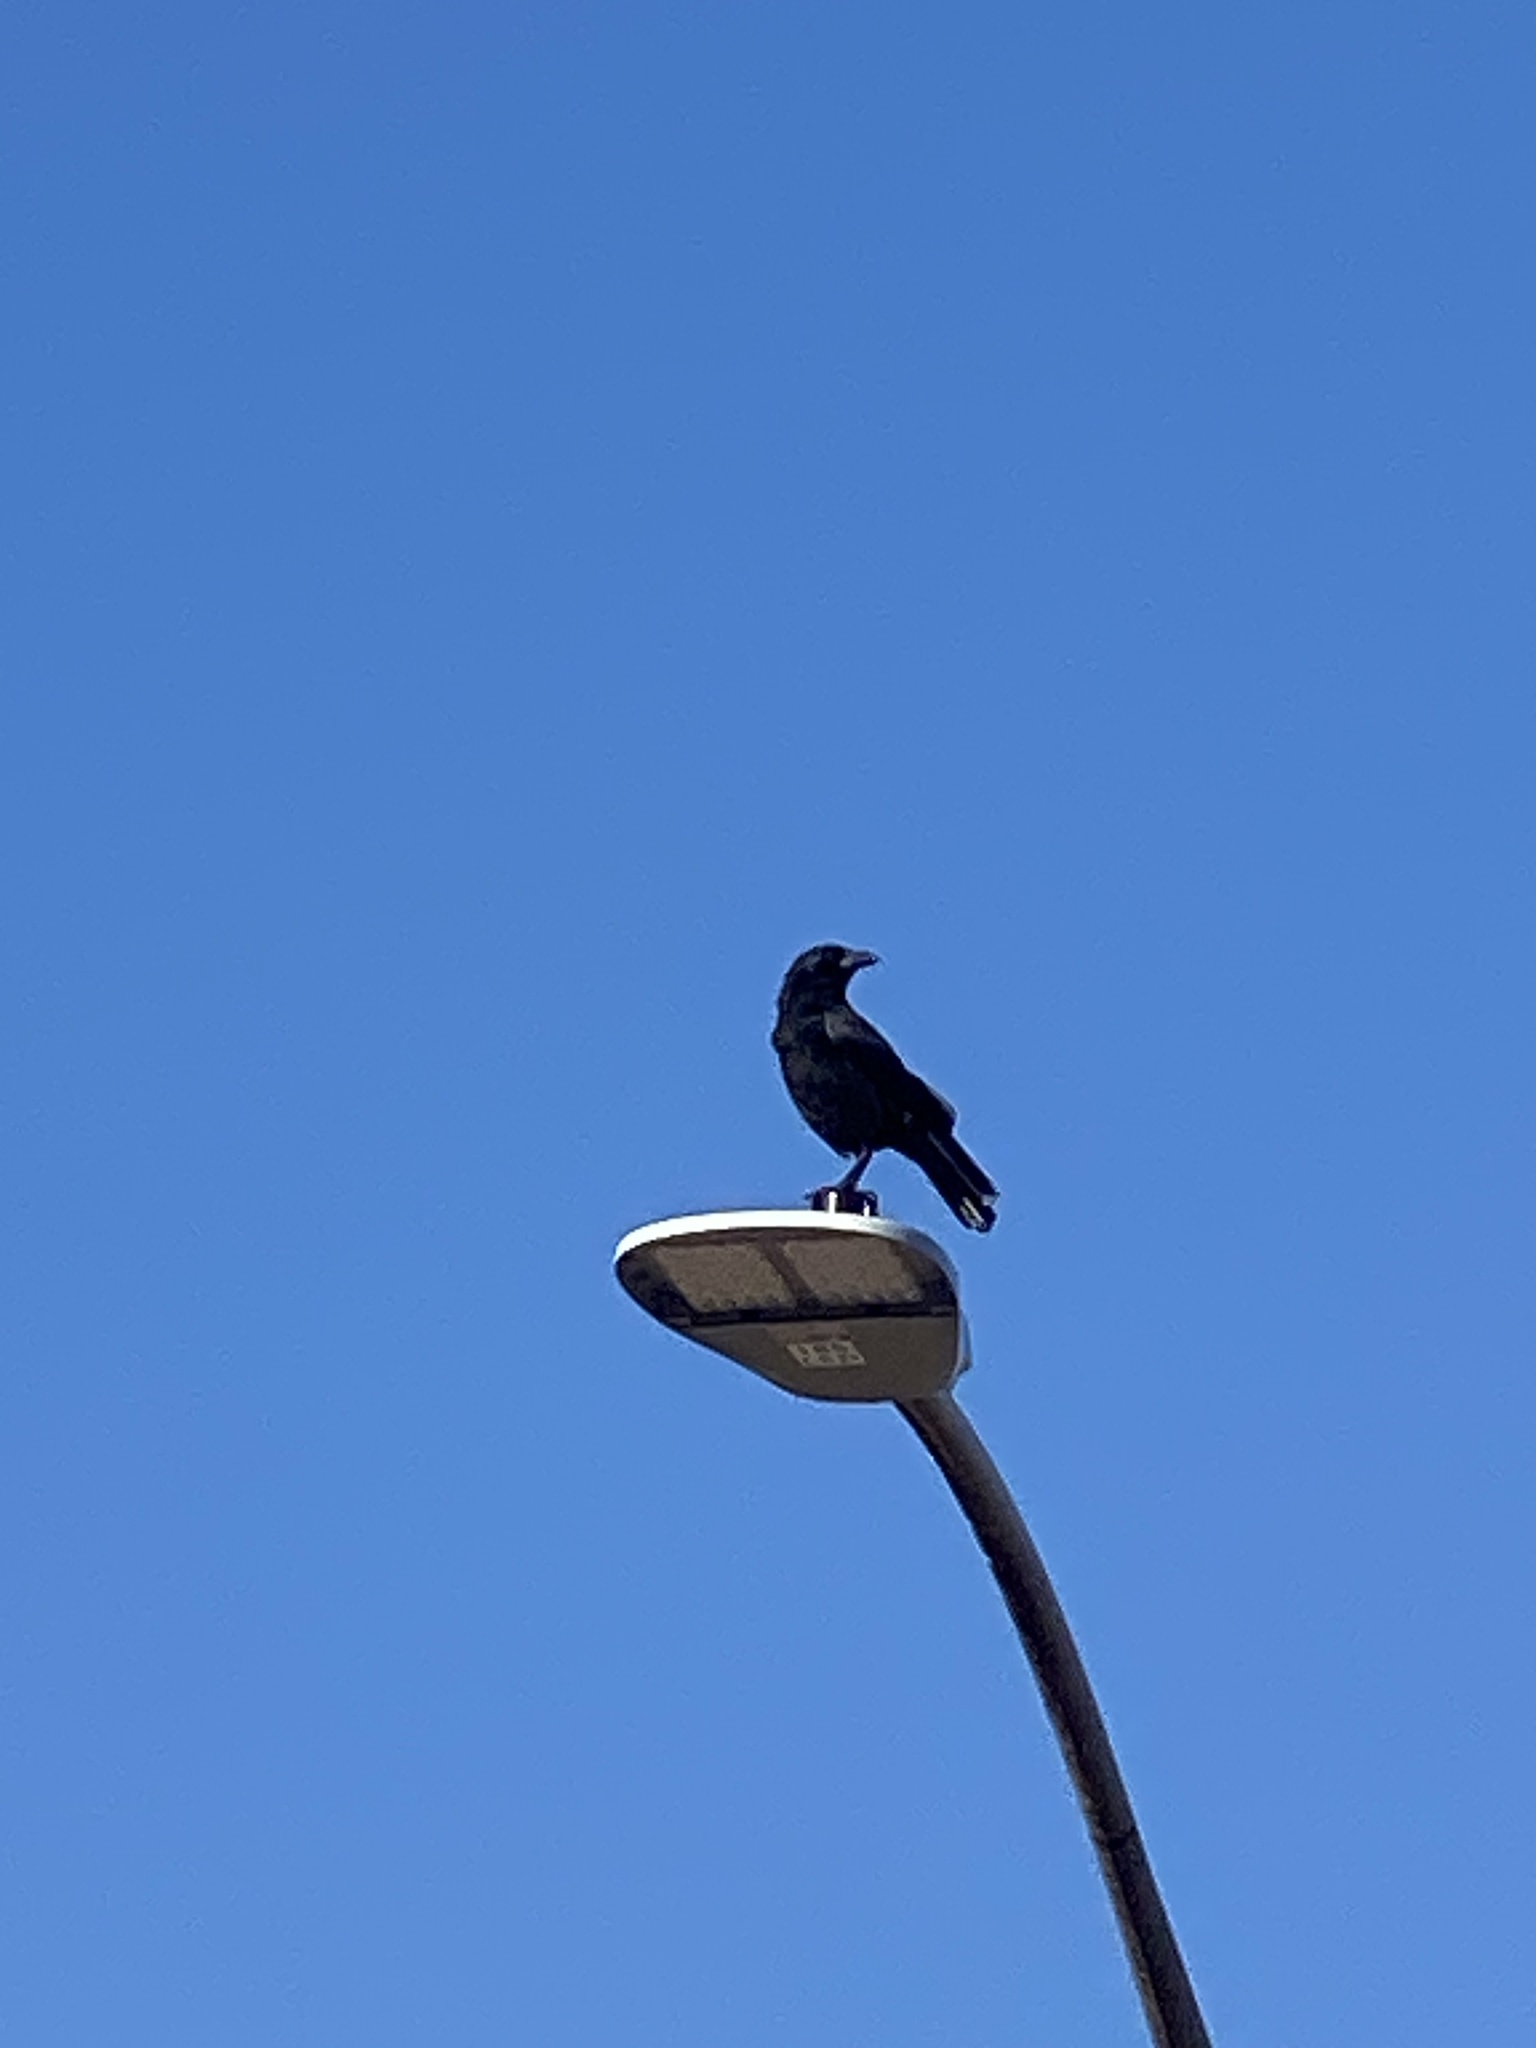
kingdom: Animalia
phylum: Chordata
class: Aves
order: Passeriformes
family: Corvidae
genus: Corvus
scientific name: Corvus brachyrhynchos
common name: American crow
